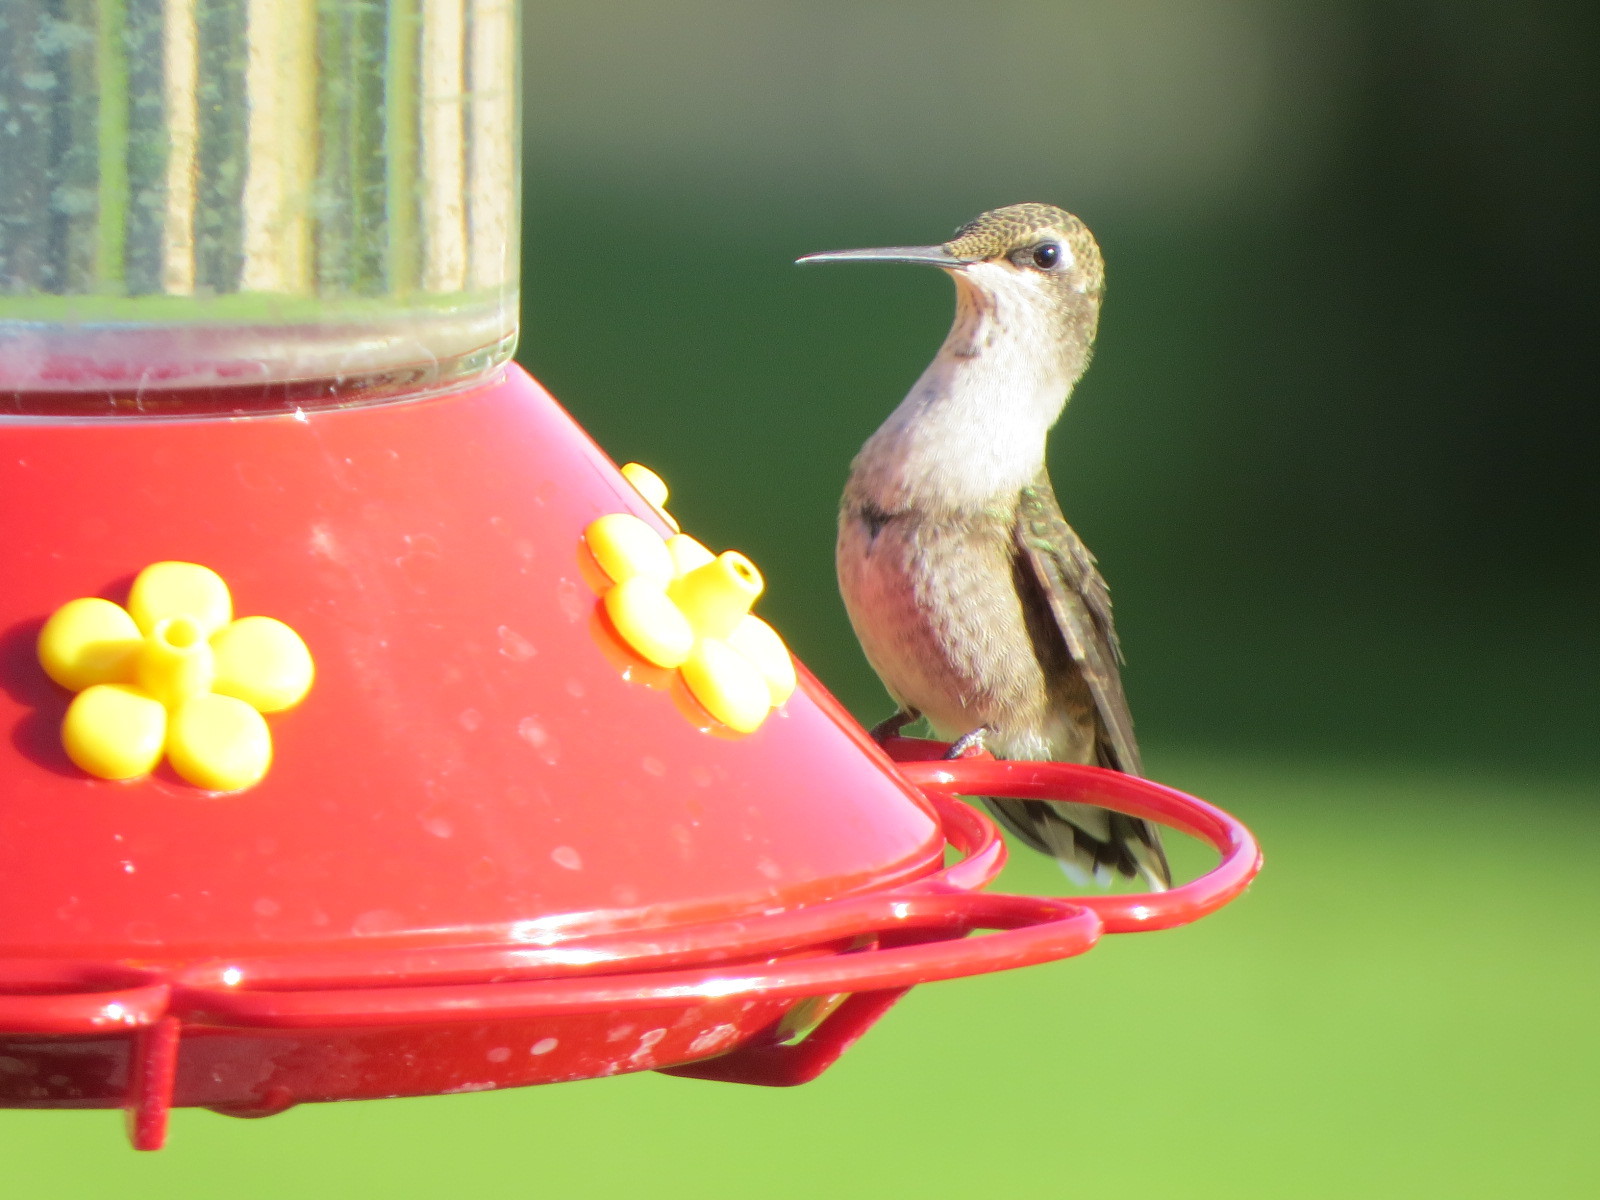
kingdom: Animalia
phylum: Chordata
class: Aves
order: Apodiformes
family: Trochilidae
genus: Archilochus
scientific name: Archilochus alexandri
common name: Black-chinned hummingbird
